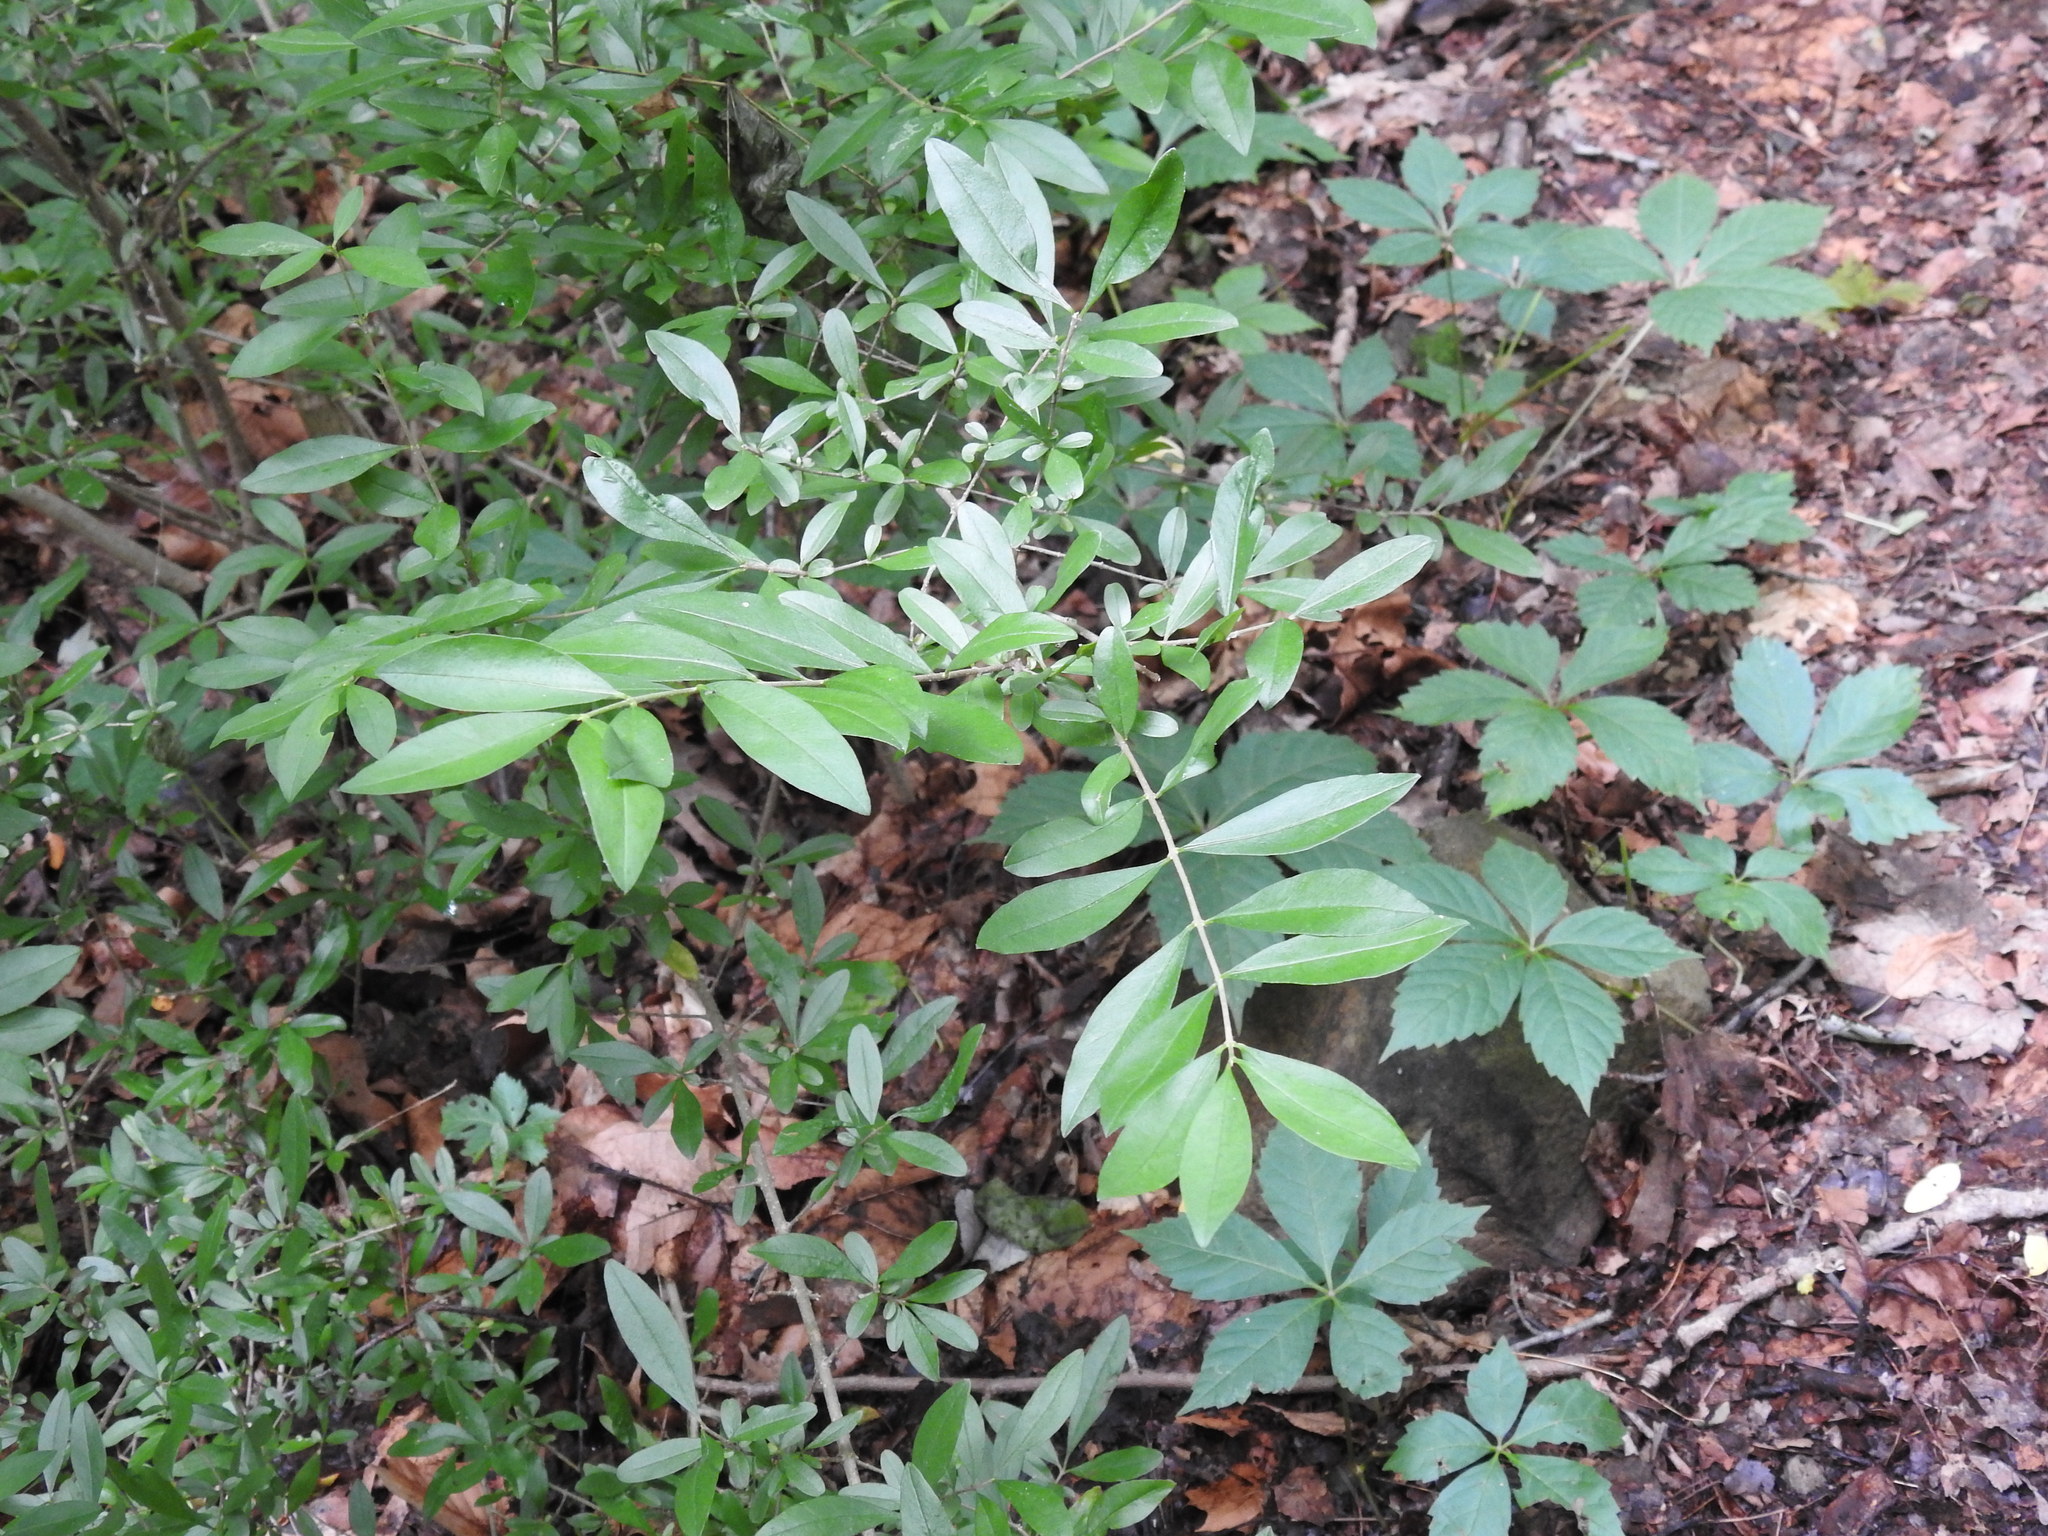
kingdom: Plantae
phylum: Tracheophyta
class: Magnoliopsida
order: Lamiales
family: Oleaceae
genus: Ligustrum
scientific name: Ligustrum obtusifolium
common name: Border privet
